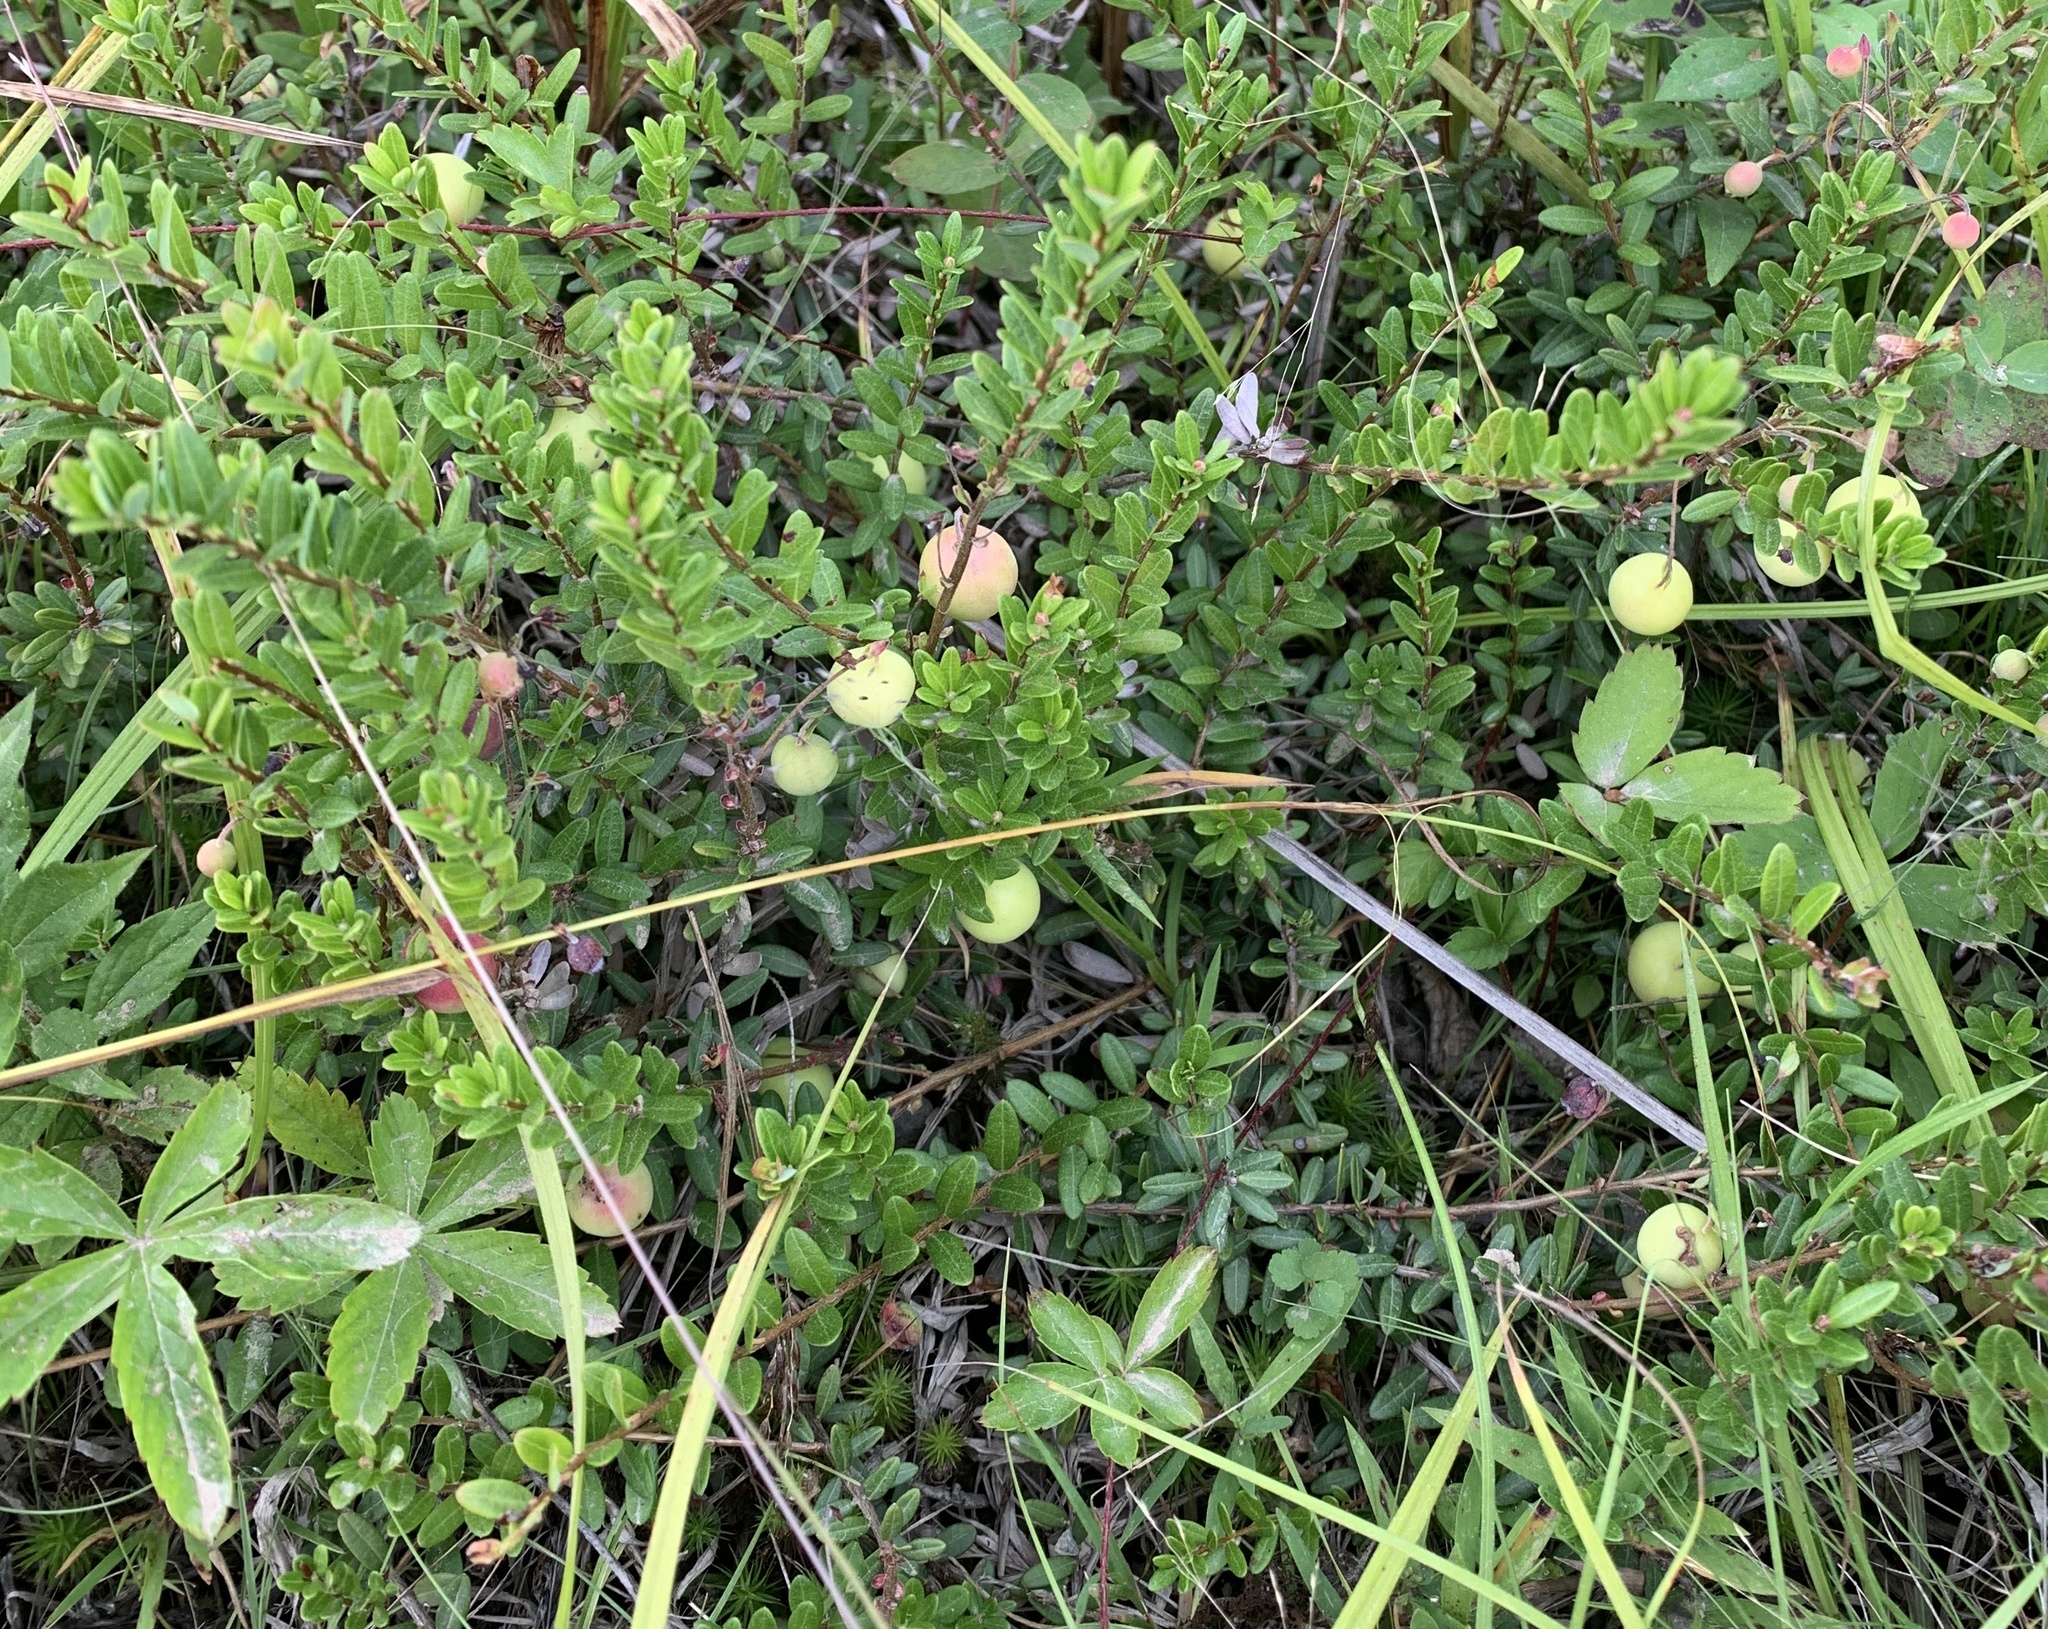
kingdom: Plantae
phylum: Tracheophyta
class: Magnoliopsida
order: Ericales
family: Ericaceae
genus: Vaccinium
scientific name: Vaccinium macrocarpon
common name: American cranberry
